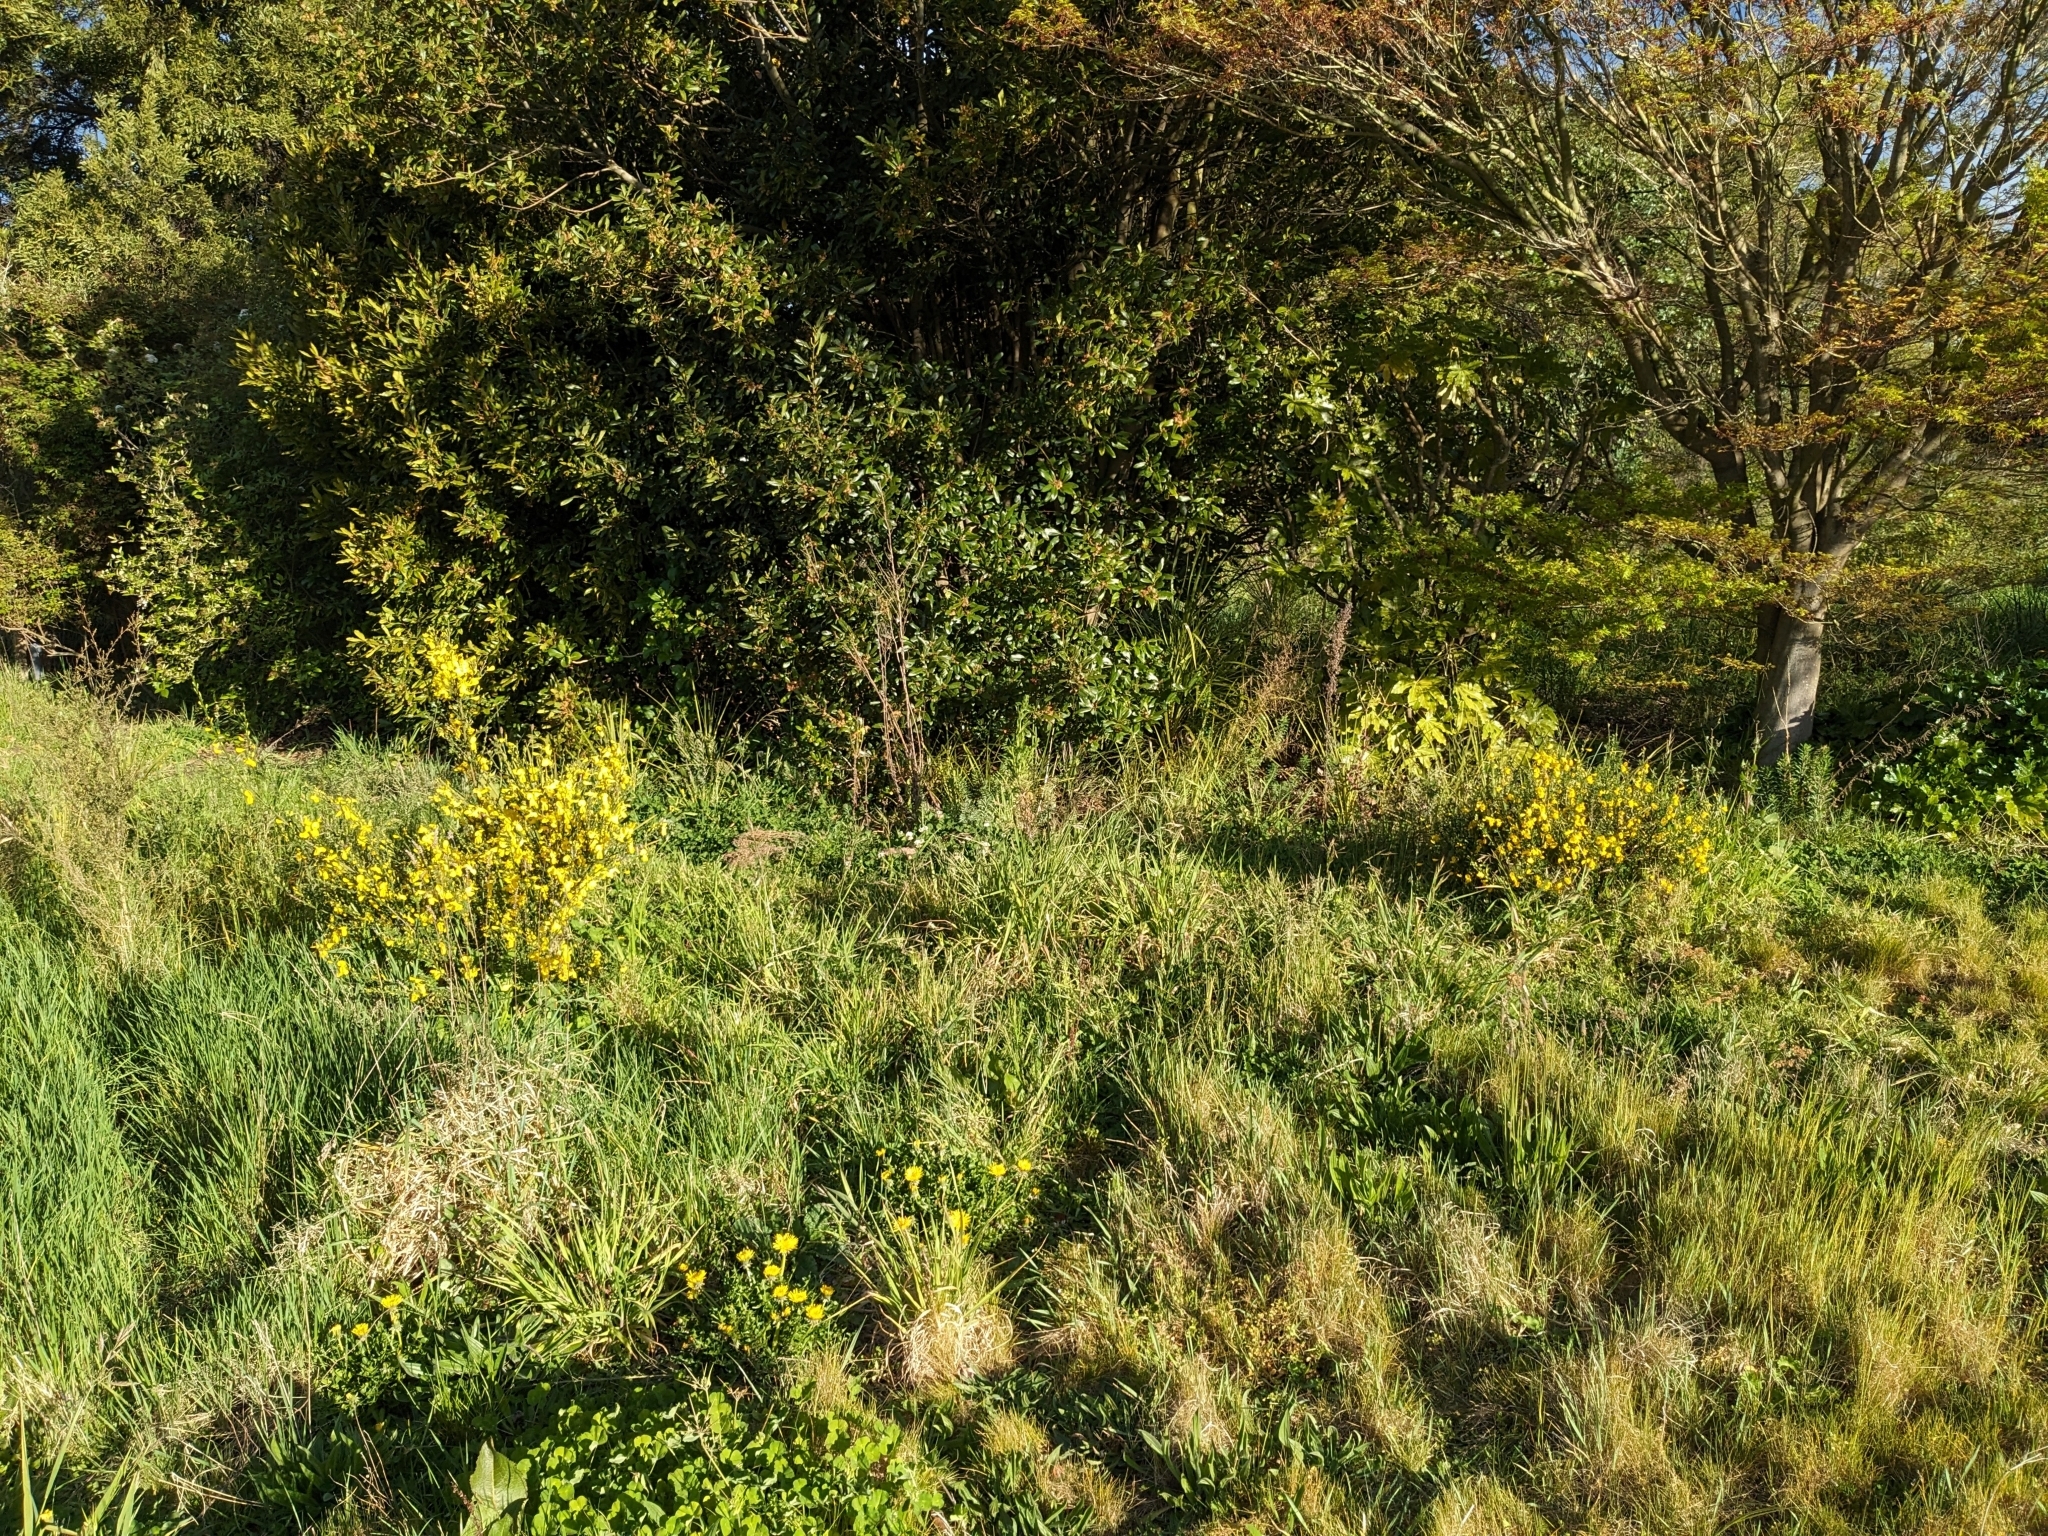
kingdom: Plantae
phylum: Tracheophyta
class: Magnoliopsida
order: Fabales
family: Fabaceae
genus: Cytisus
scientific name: Cytisus scoparius
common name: Scotch broom
